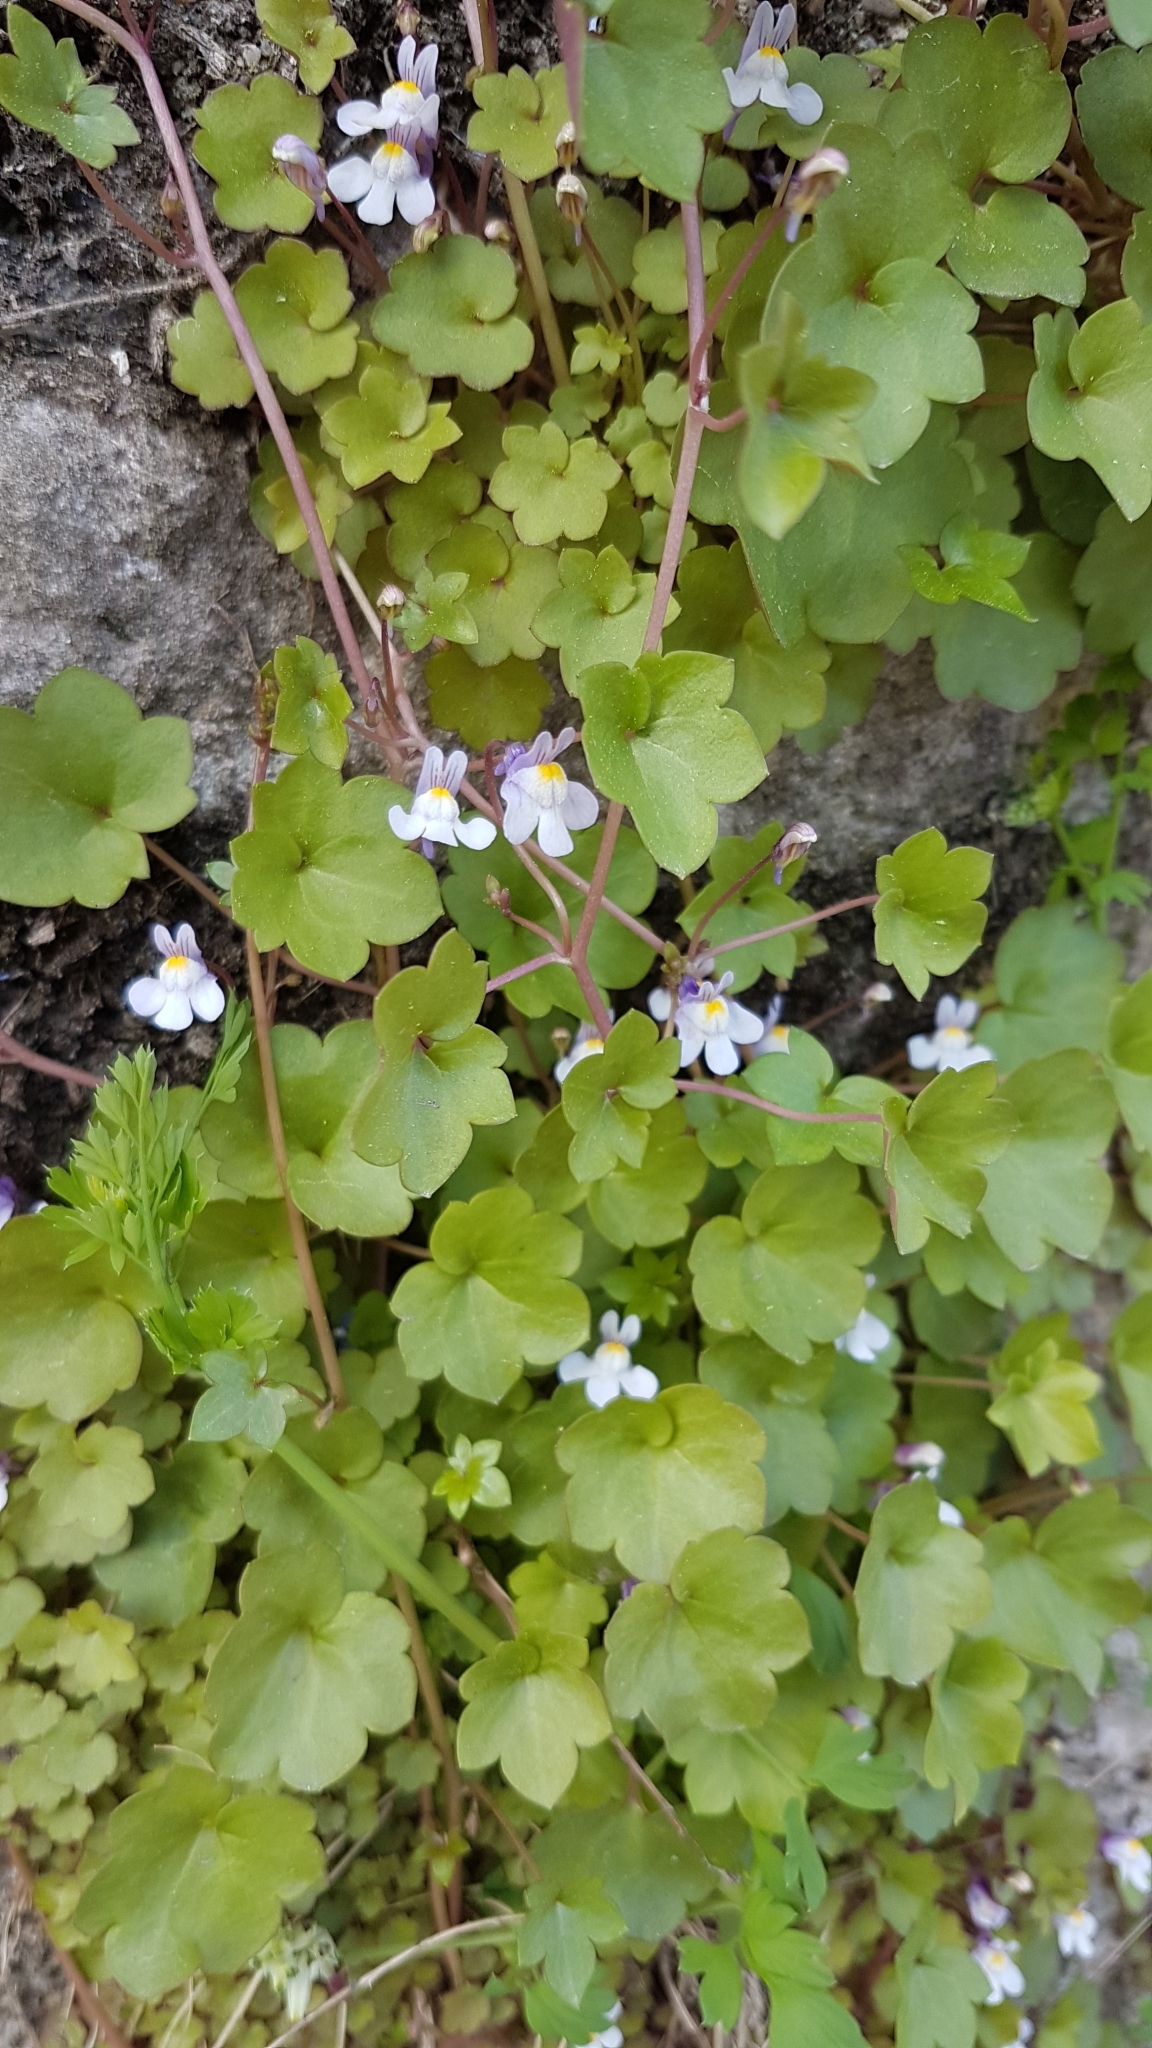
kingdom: Plantae
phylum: Tracheophyta
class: Magnoliopsida
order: Lamiales
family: Plantaginaceae
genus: Cymbalaria
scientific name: Cymbalaria muralis
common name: Ivy-leaved toadflax
